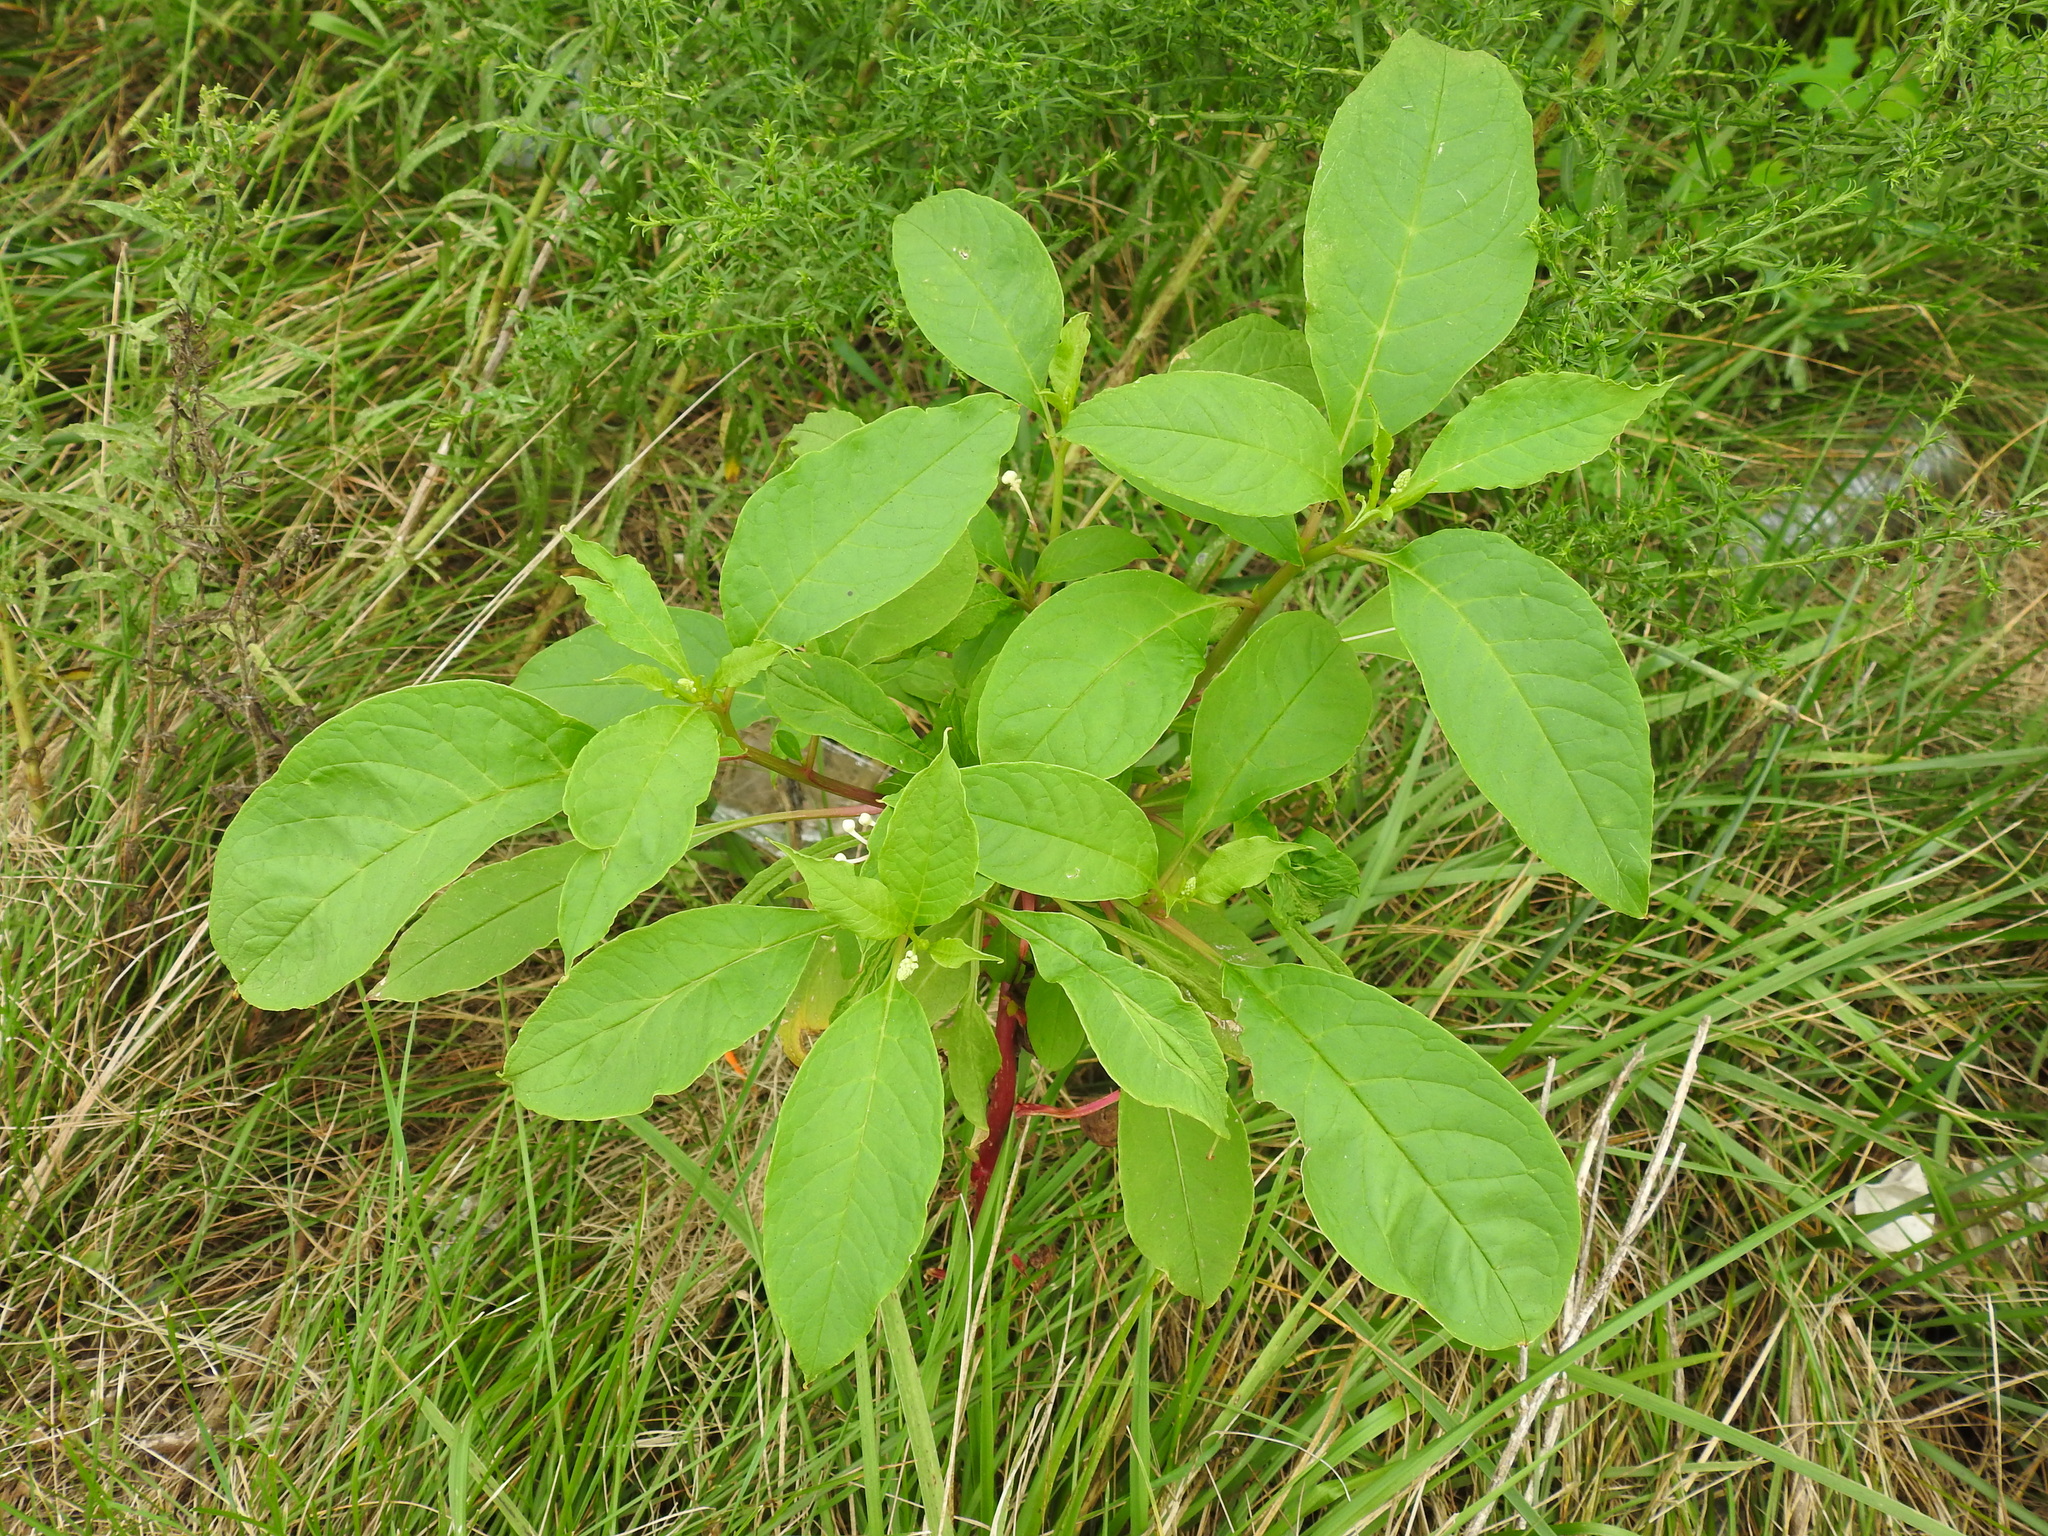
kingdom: Plantae
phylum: Tracheophyta
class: Magnoliopsida
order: Caryophyllales
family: Phytolaccaceae
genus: Phytolacca
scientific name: Phytolacca americana
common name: American pokeweed
